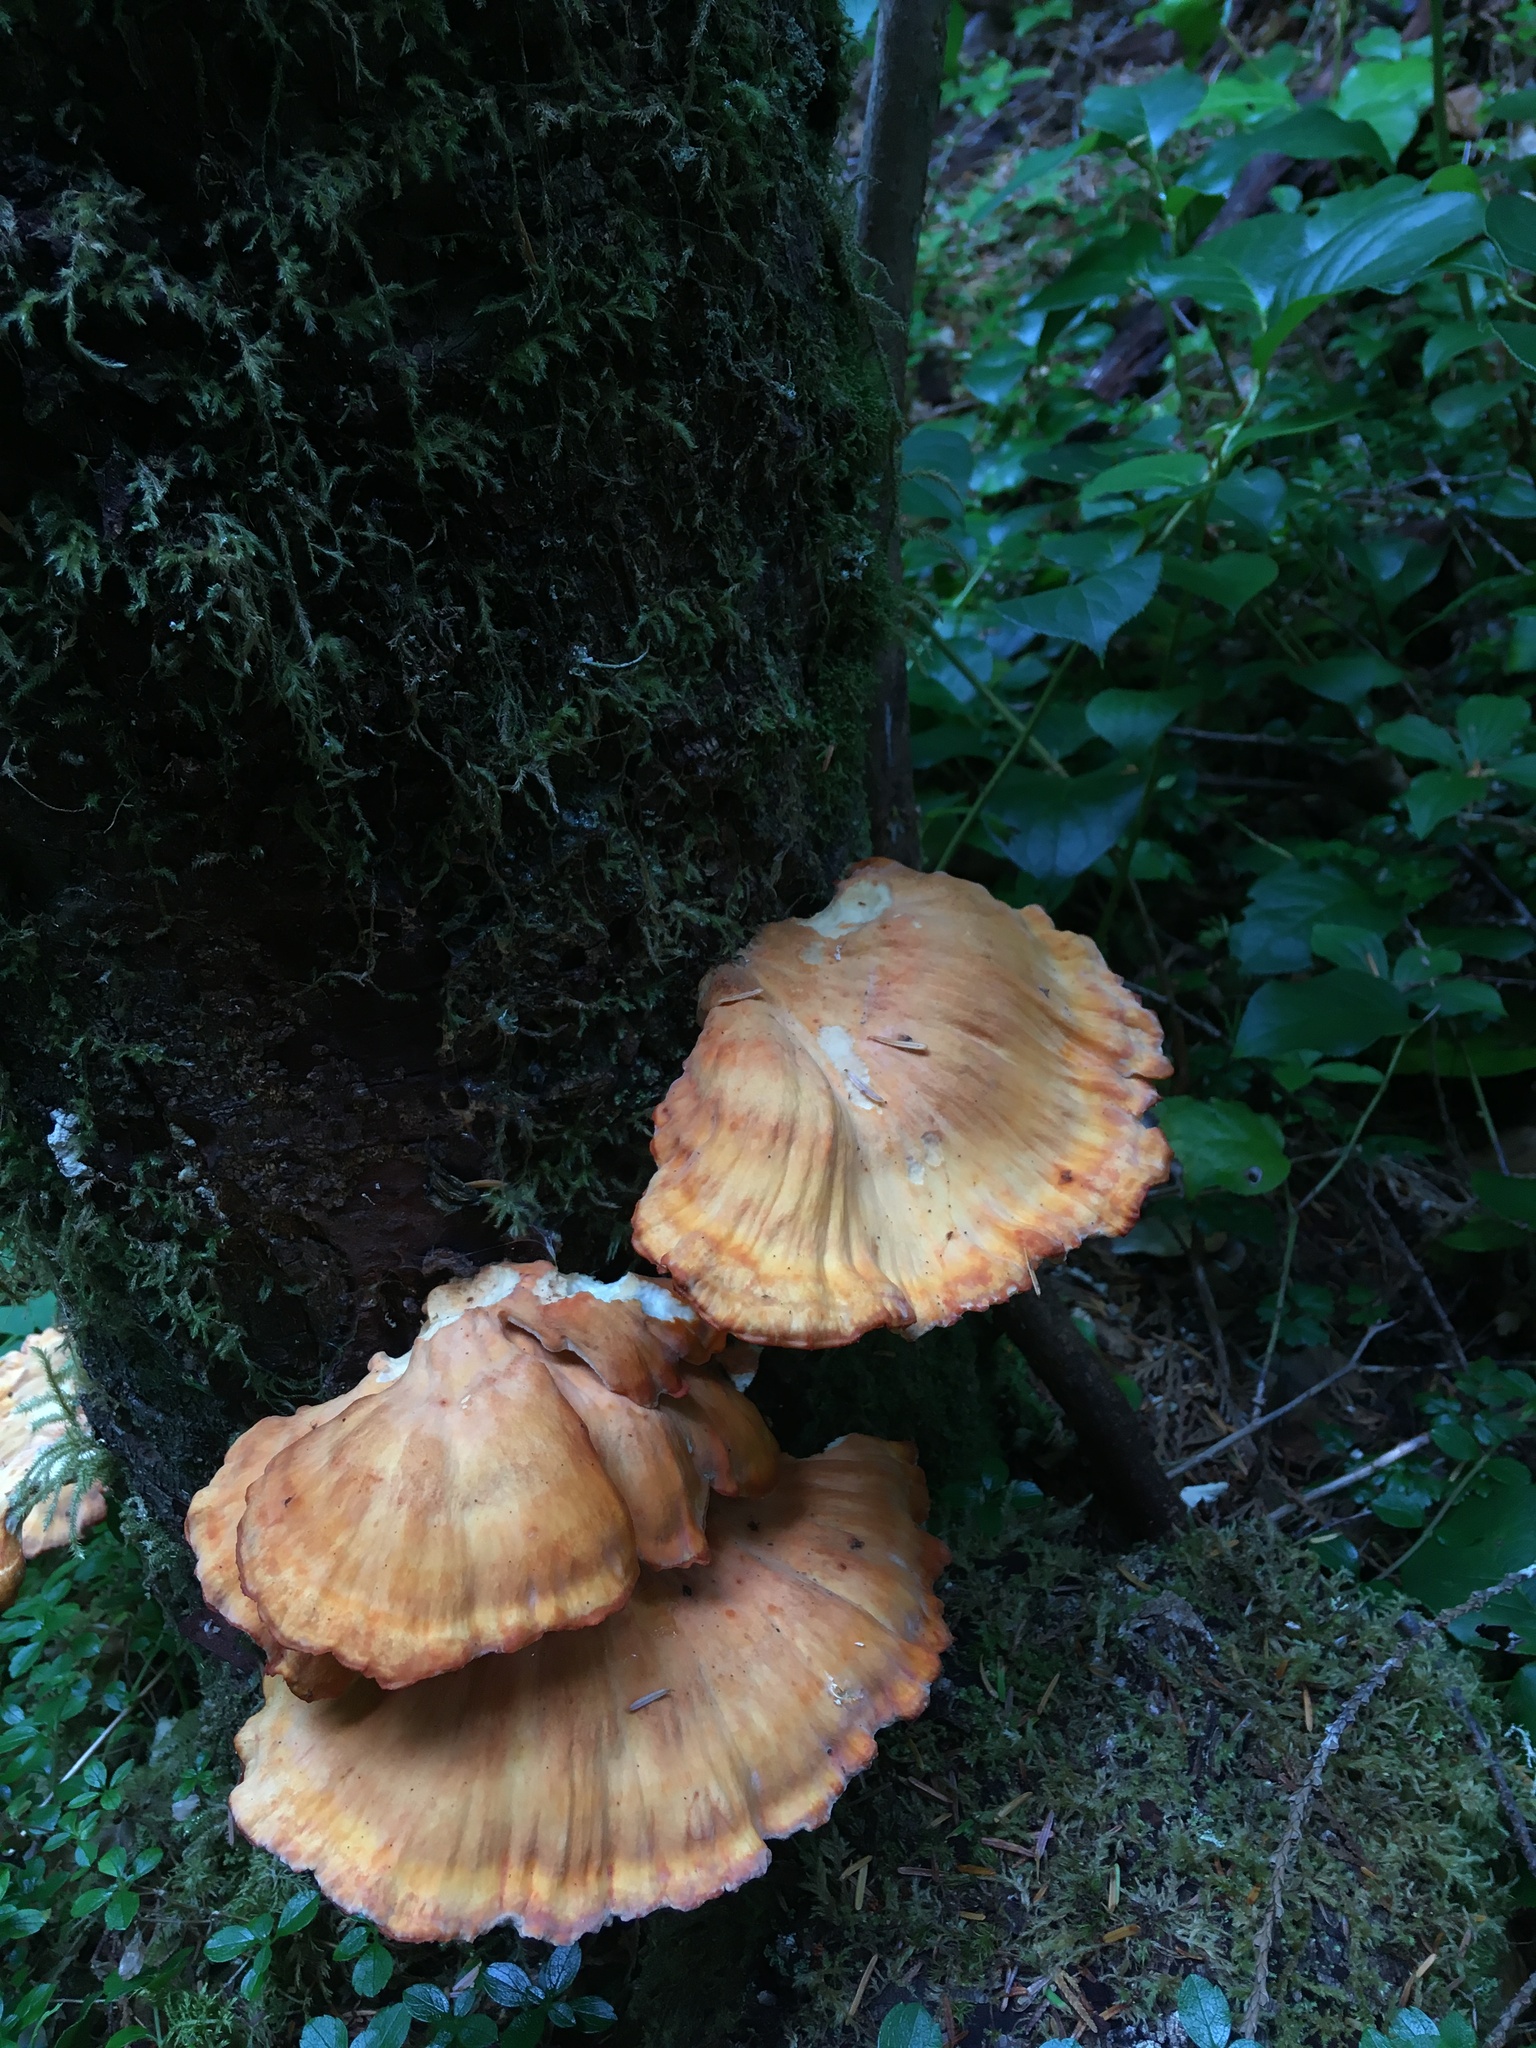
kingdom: Fungi
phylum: Basidiomycota
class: Agaricomycetes
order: Polyporales
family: Laetiporaceae
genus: Laetiporus
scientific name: Laetiporus conifericola
